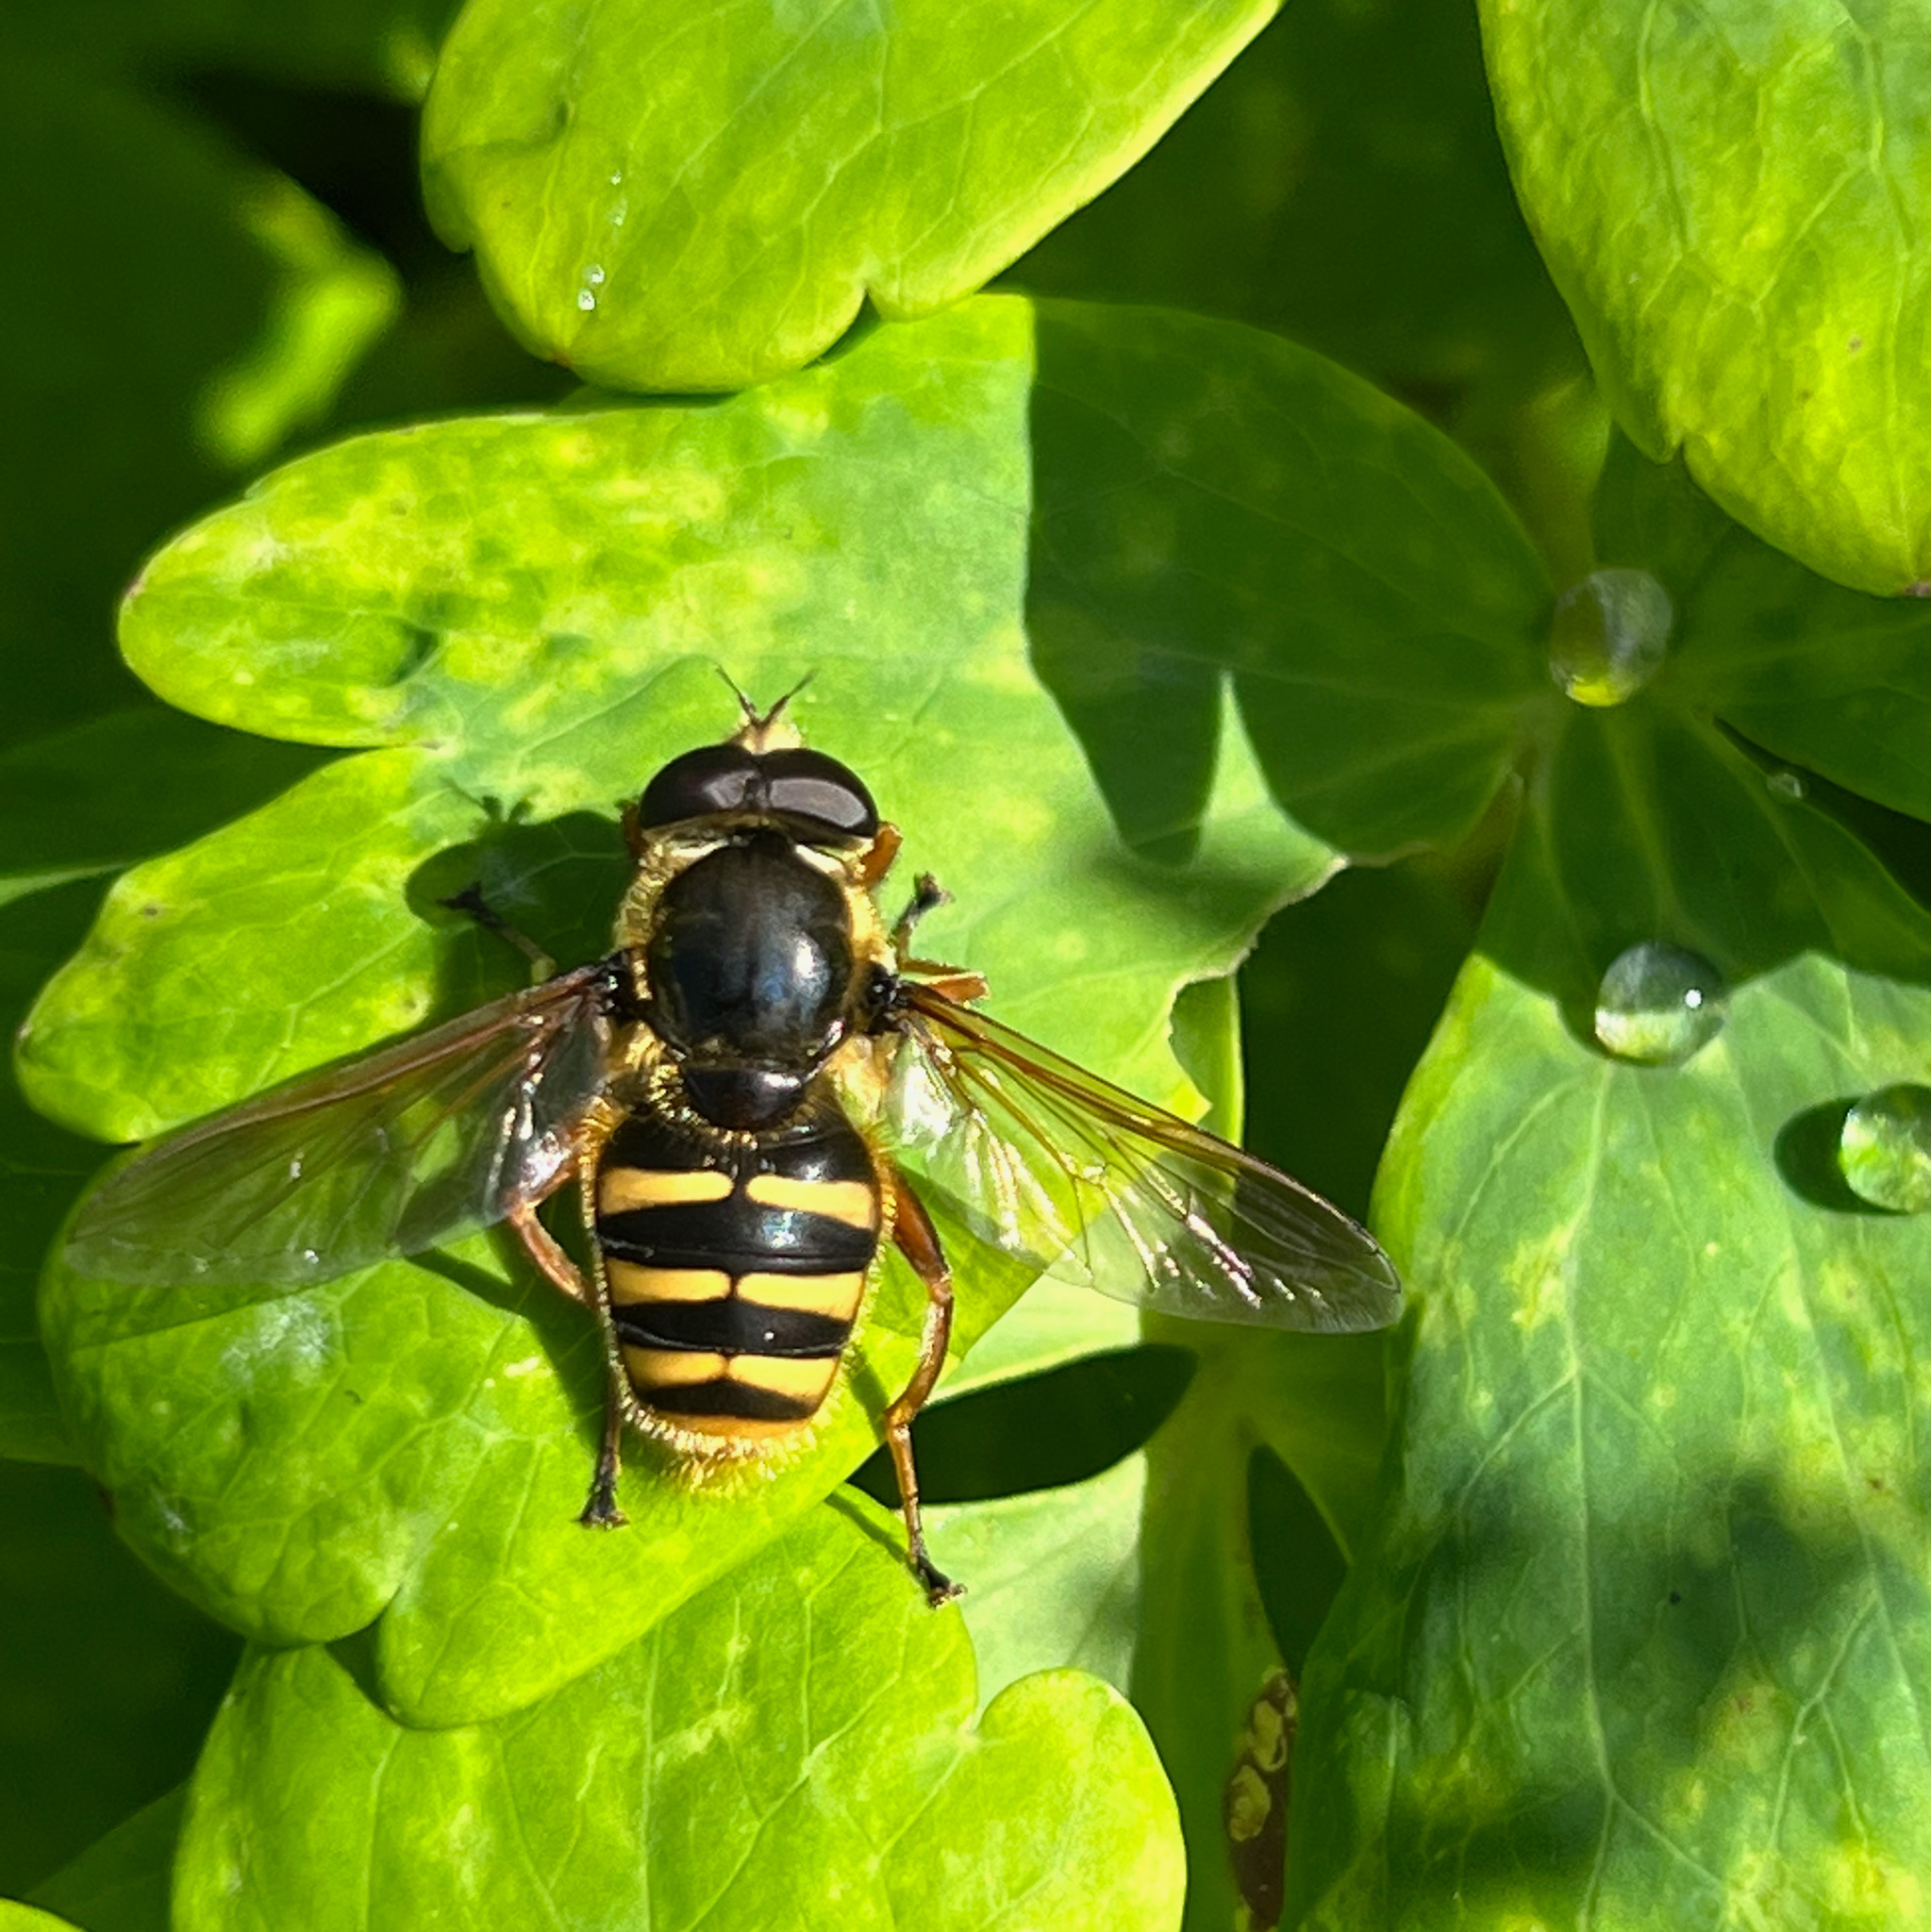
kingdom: Animalia
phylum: Arthropoda
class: Insecta
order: Diptera
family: Syrphidae
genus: Sericomyia
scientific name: Sericomyia silentis
